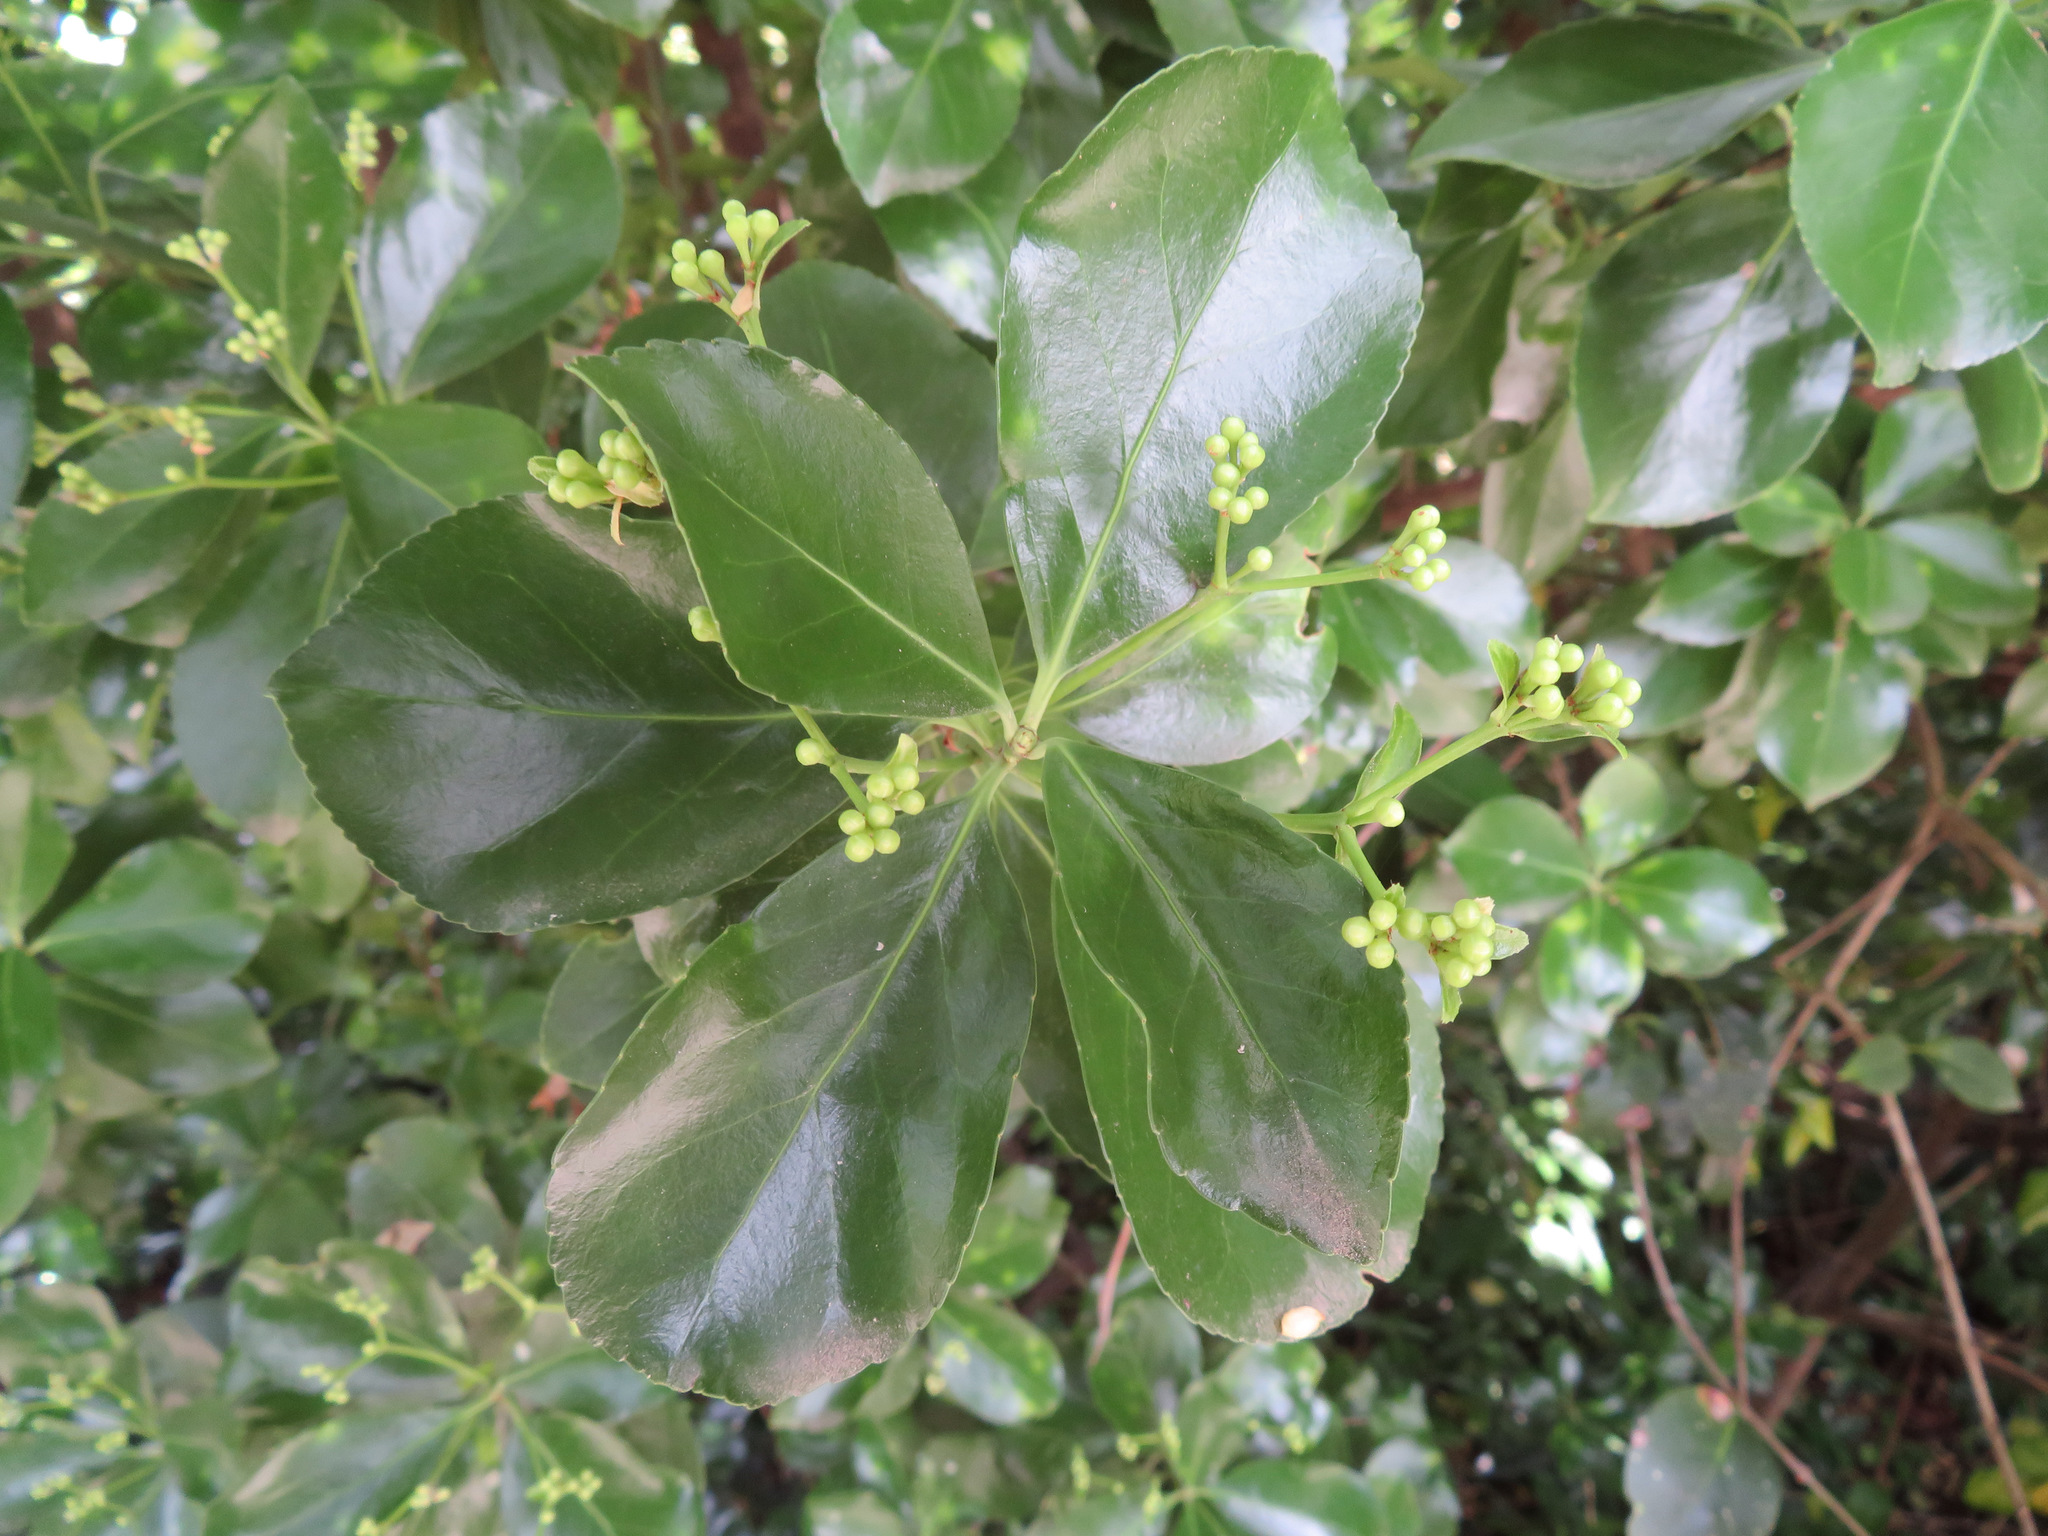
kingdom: Plantae
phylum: Tracheophyta
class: Magnoliopsida
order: Celastrales
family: Celastraceae
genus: Euonymus
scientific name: Euonymus japonicus
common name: Japanese spindletree
